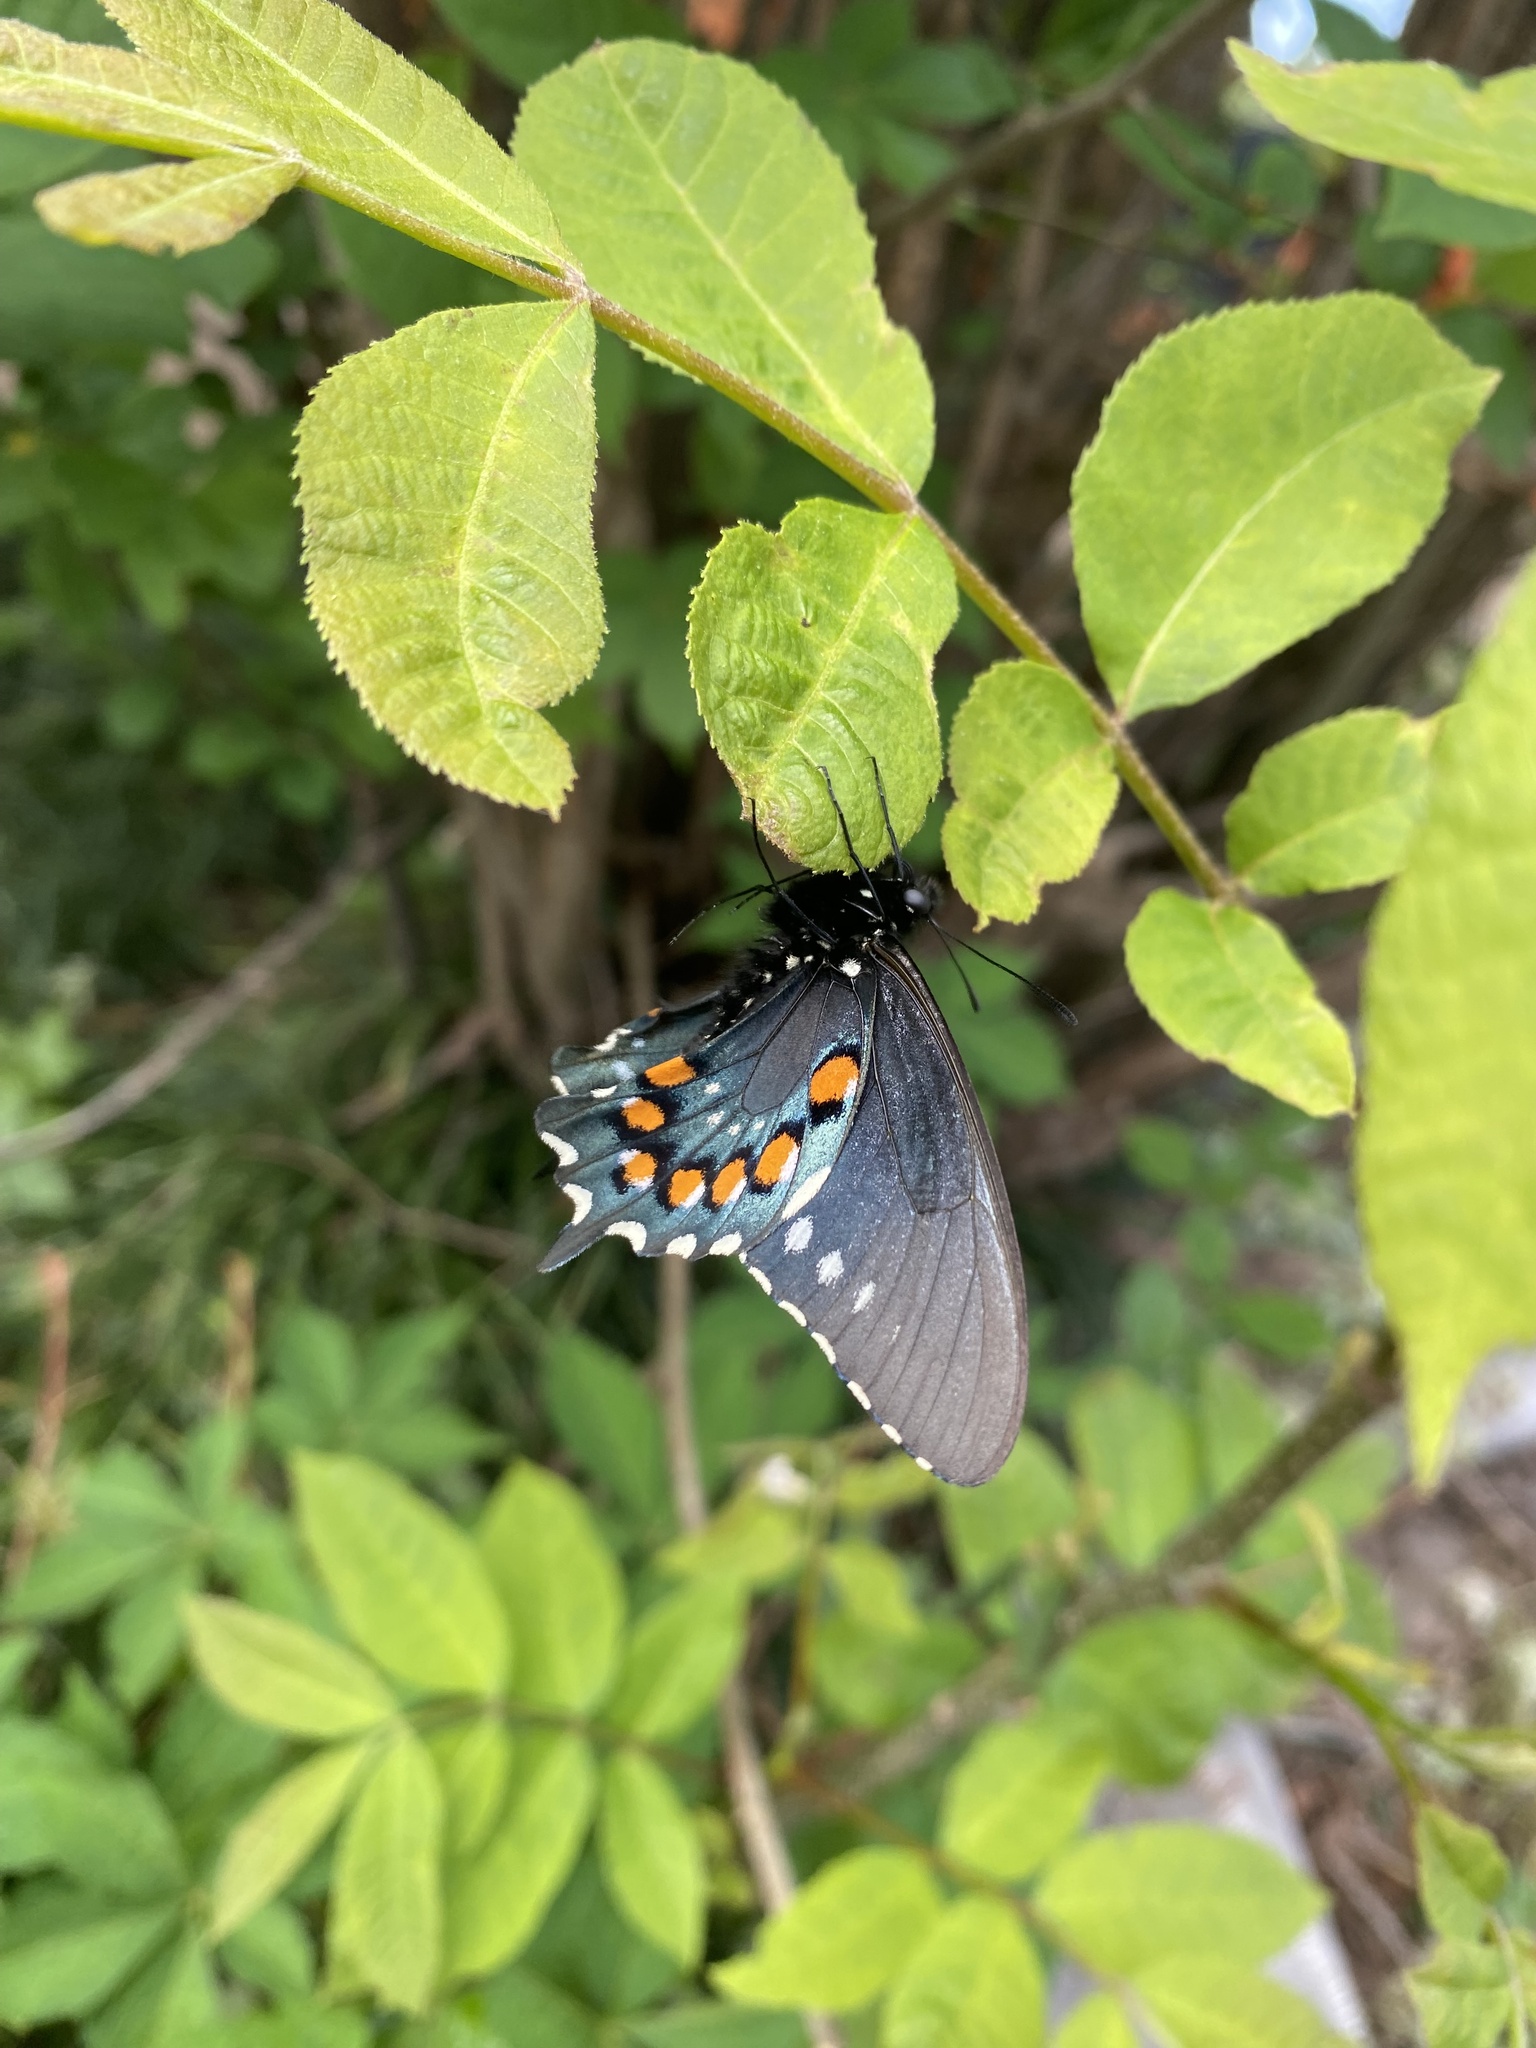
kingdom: Animalia
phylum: Arthropoda
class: Insecta
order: Lepidoptera
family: Papilionidae
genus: Battus
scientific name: Battus philenor
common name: Pipevine swallowtail
